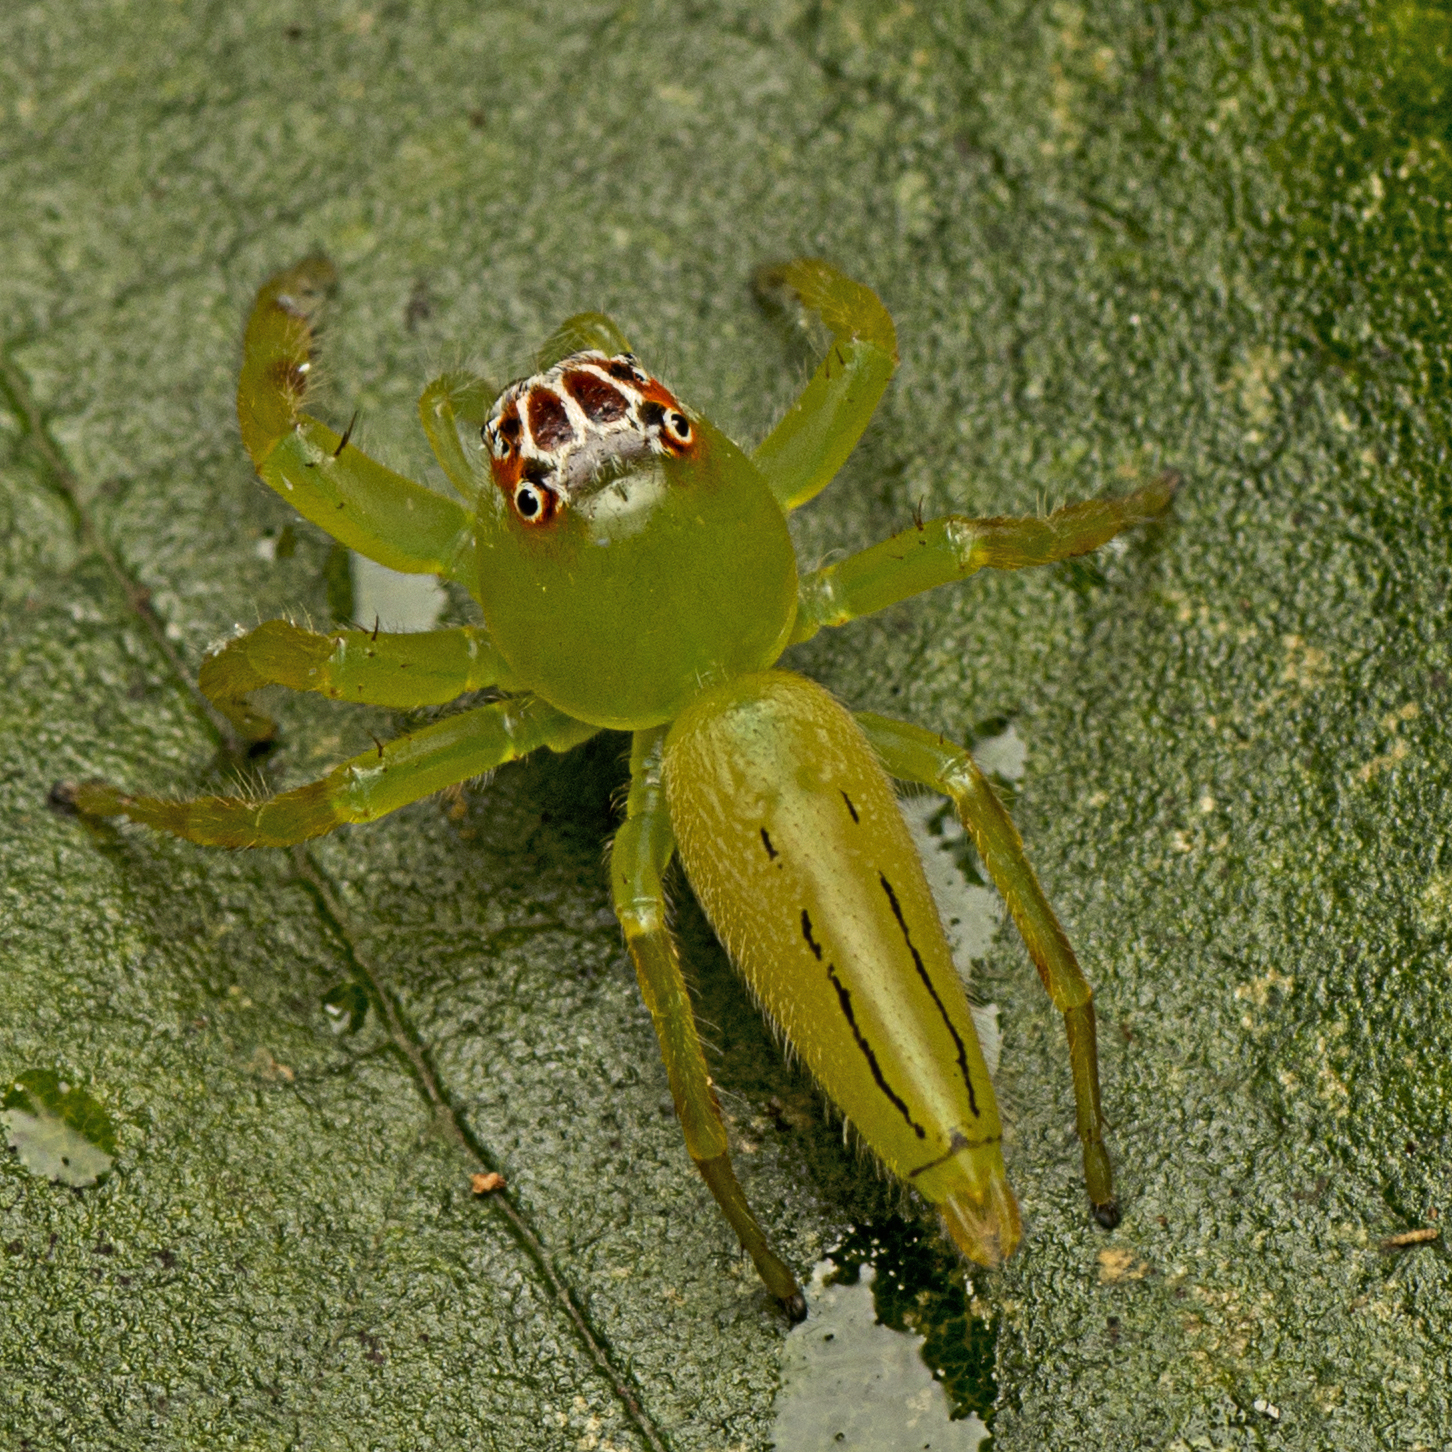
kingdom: Animalia
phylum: Arthropoda
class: Arachnida
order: Araneae
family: Salticidae
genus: Mopsus
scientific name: Mopsus mormon
